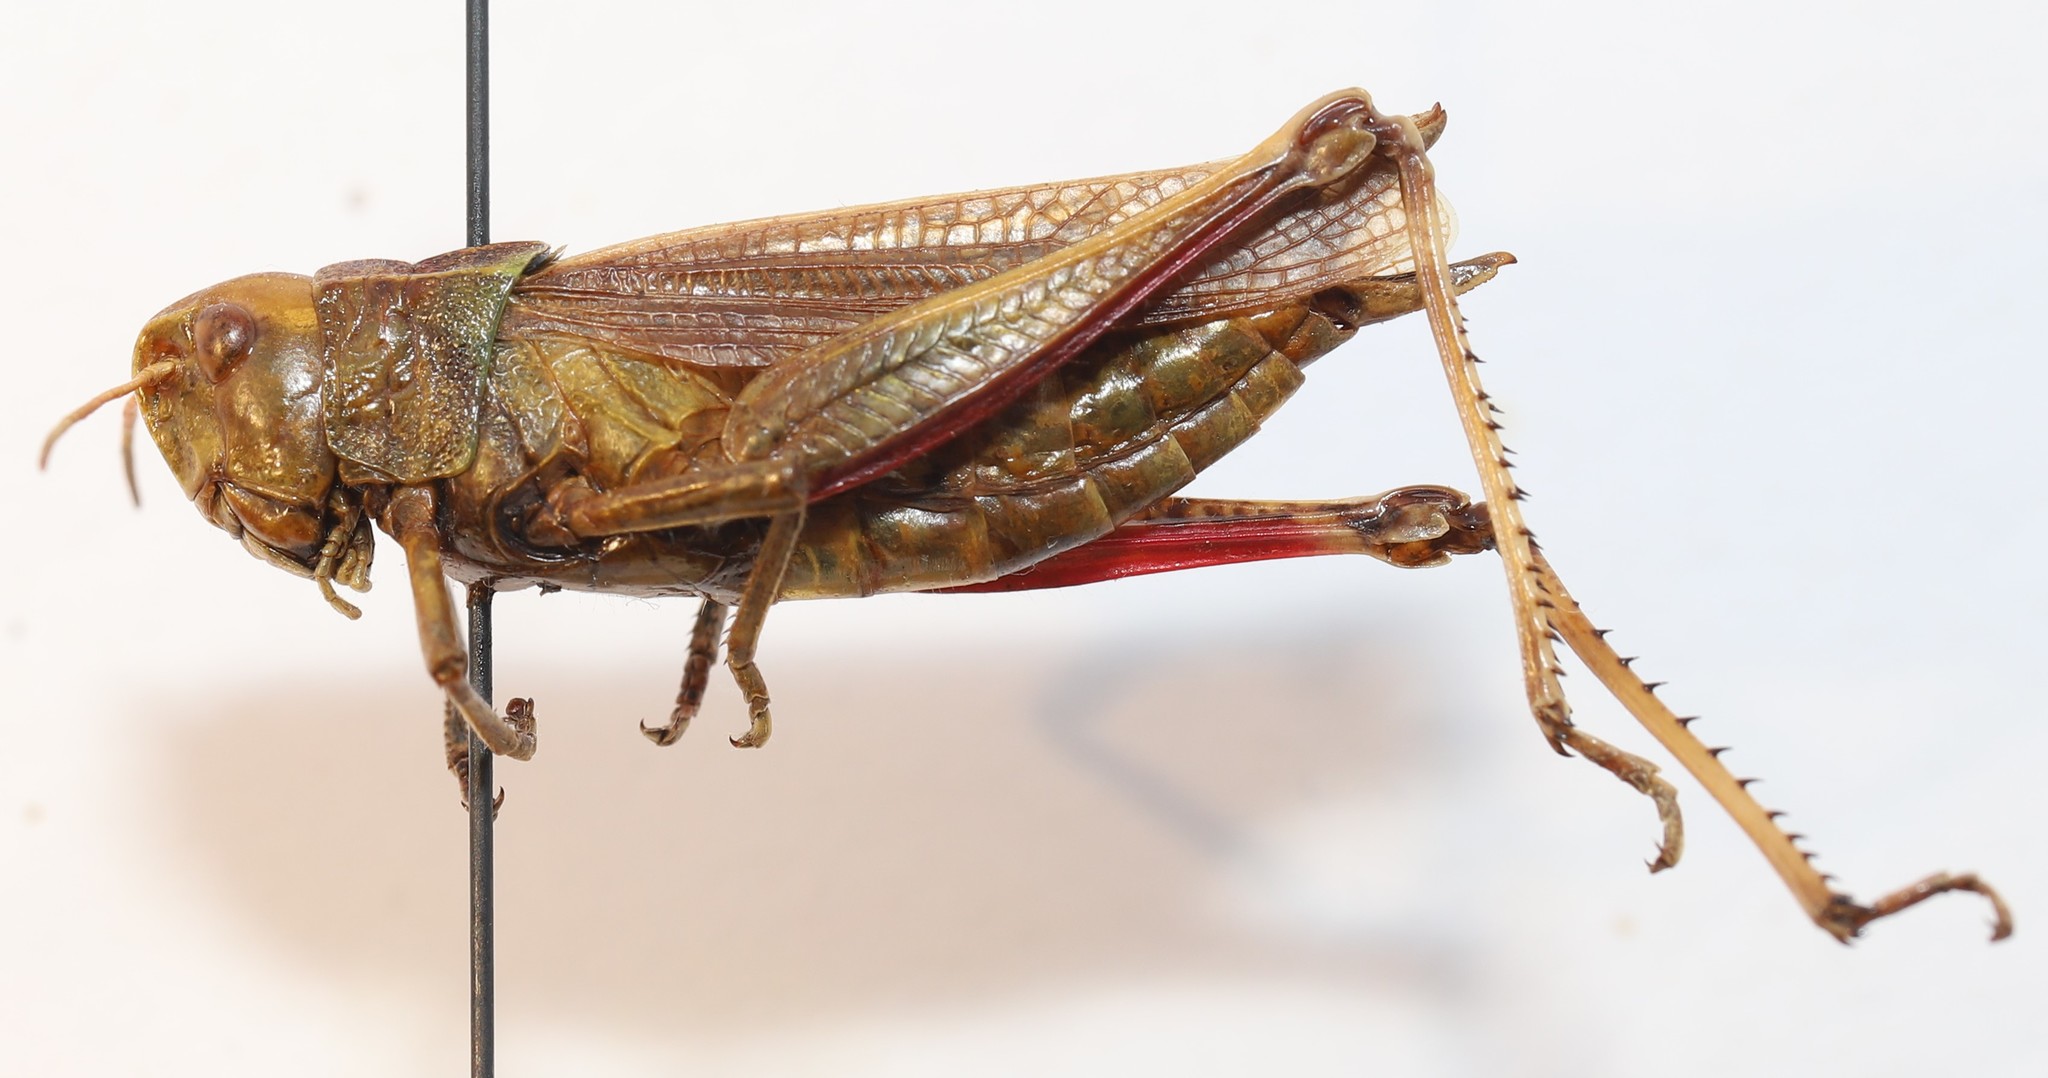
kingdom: Animalia
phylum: Arthropoda
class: Insecta
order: Orthoptera
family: Acrididae
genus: Stethophyma
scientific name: Stethophyma gracile
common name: Graceful sedge grasshopper
